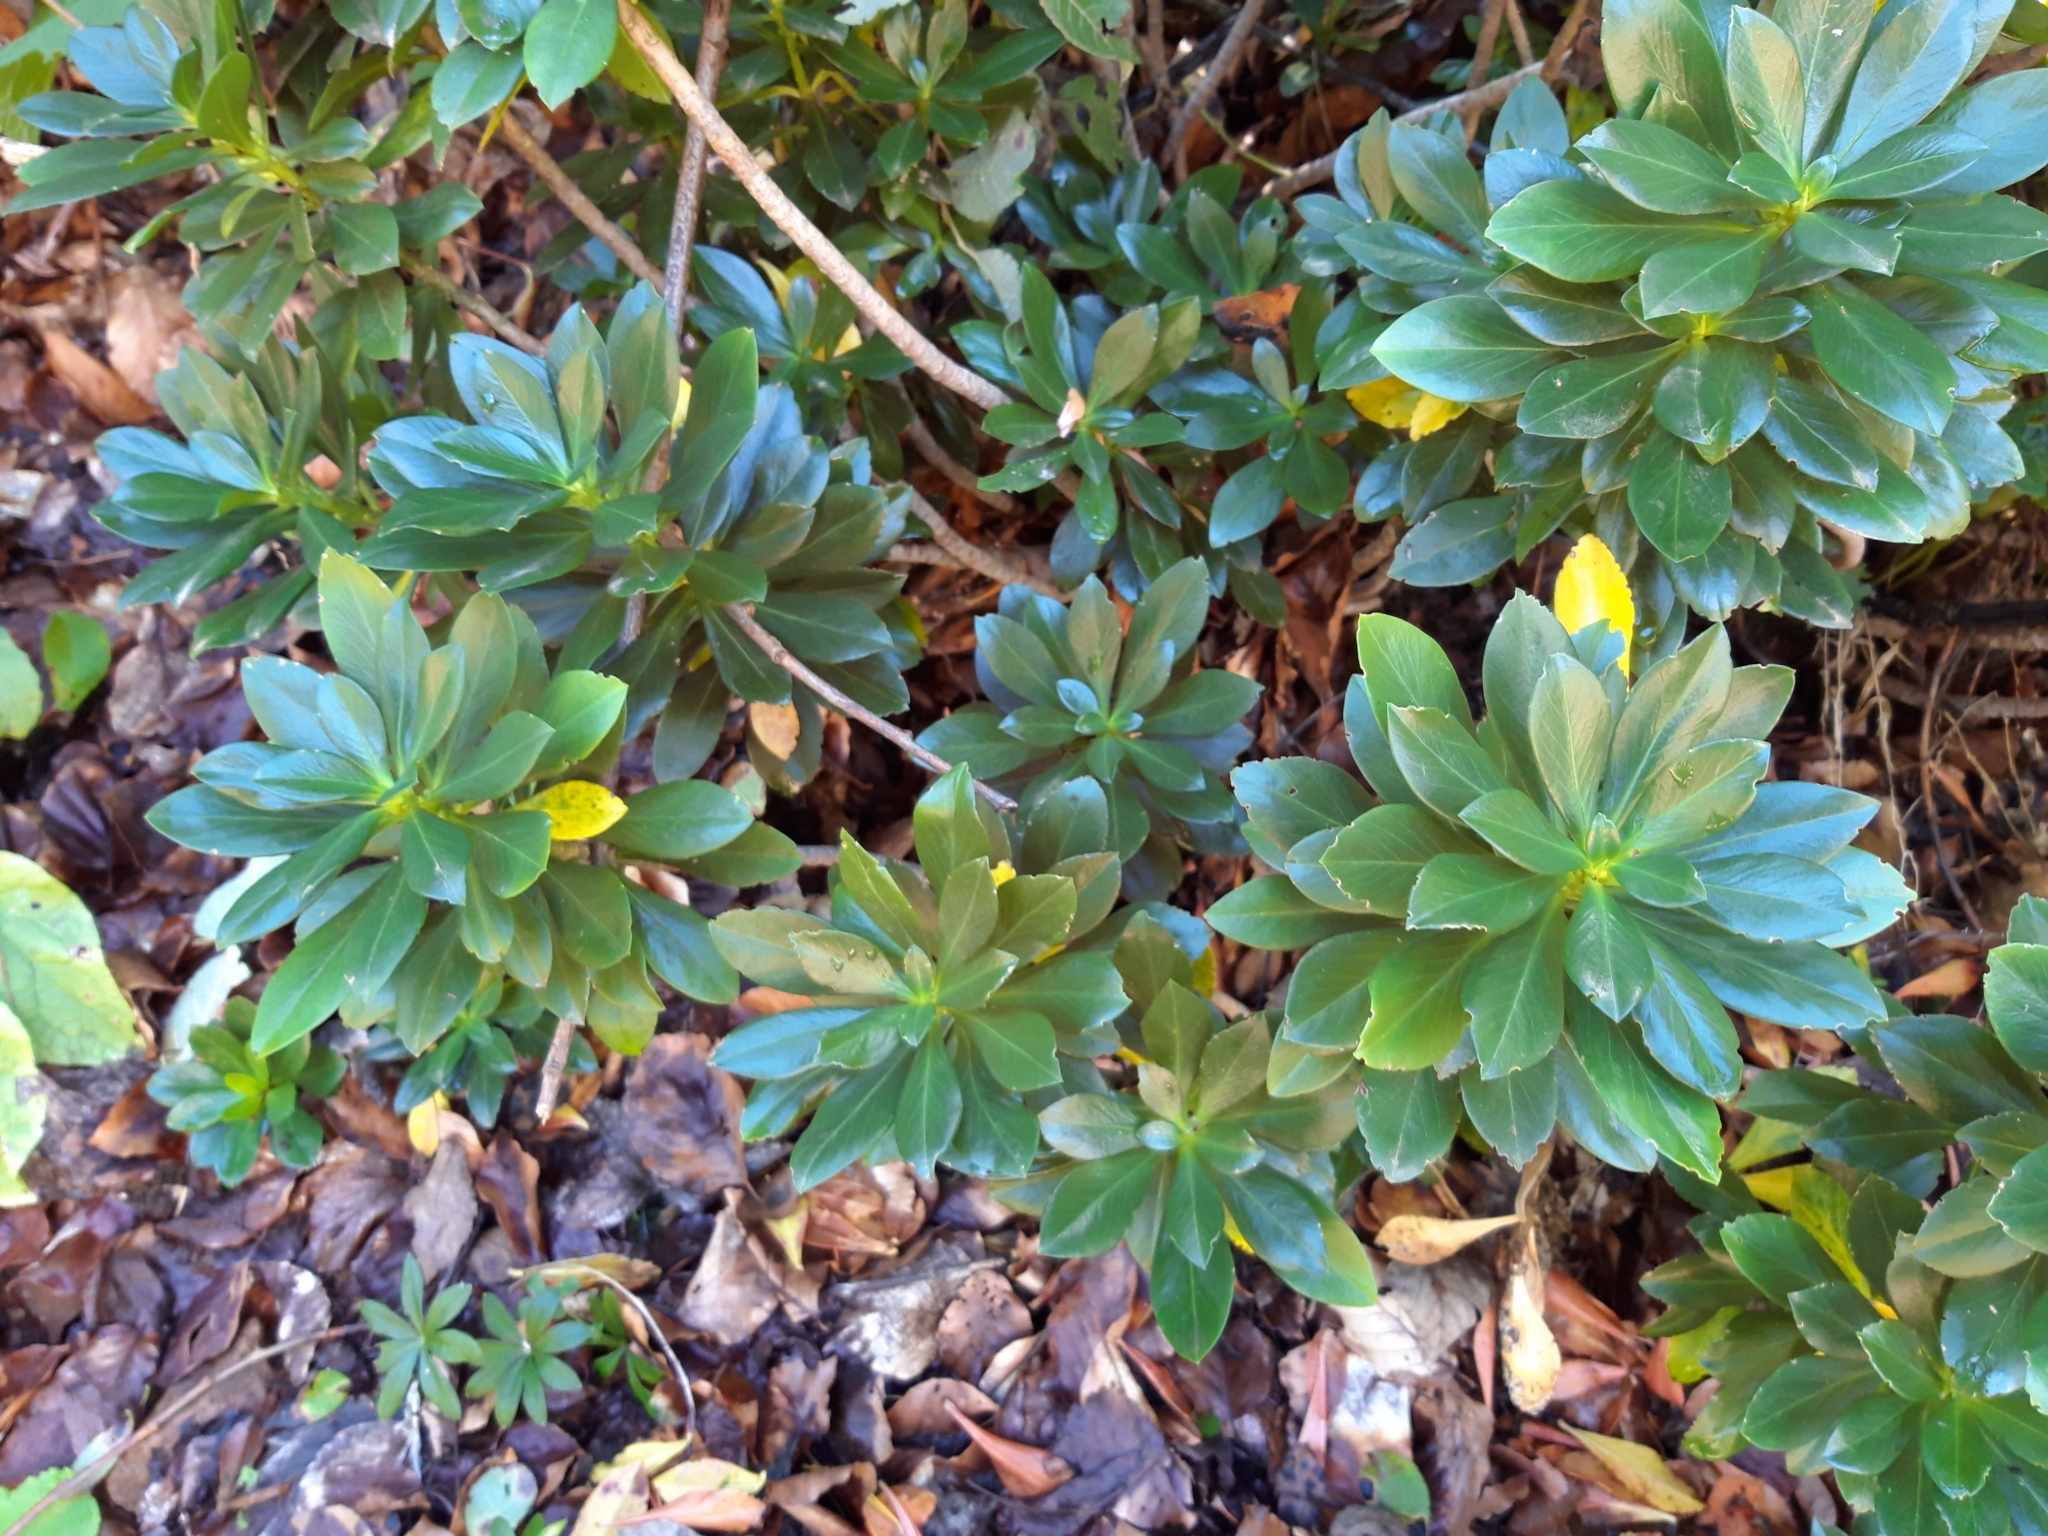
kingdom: Plantae
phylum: Tracheophyta
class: Magnoliopsida
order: Malvales
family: Thymelaeaceae
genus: Daphne
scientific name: Daphne laureola
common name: Spurge-laurel
